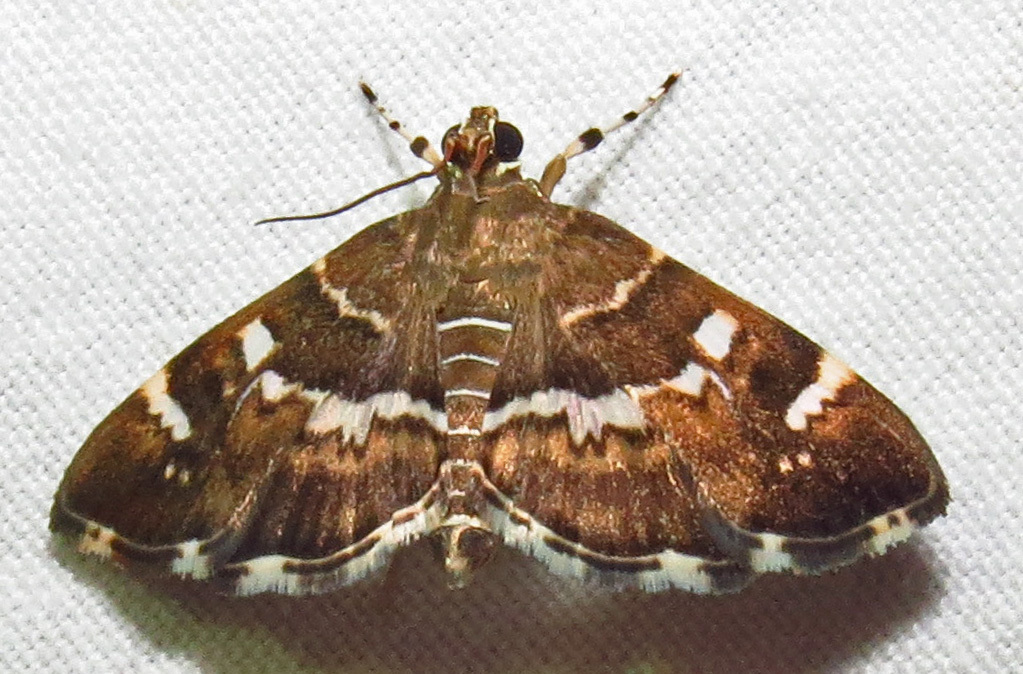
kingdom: Animalia
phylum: Arthropoda
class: Insecta
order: Lepidoptera
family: Crambidae
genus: Hymenia
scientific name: Hymenia perspectalis
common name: Spotted beet webworm
